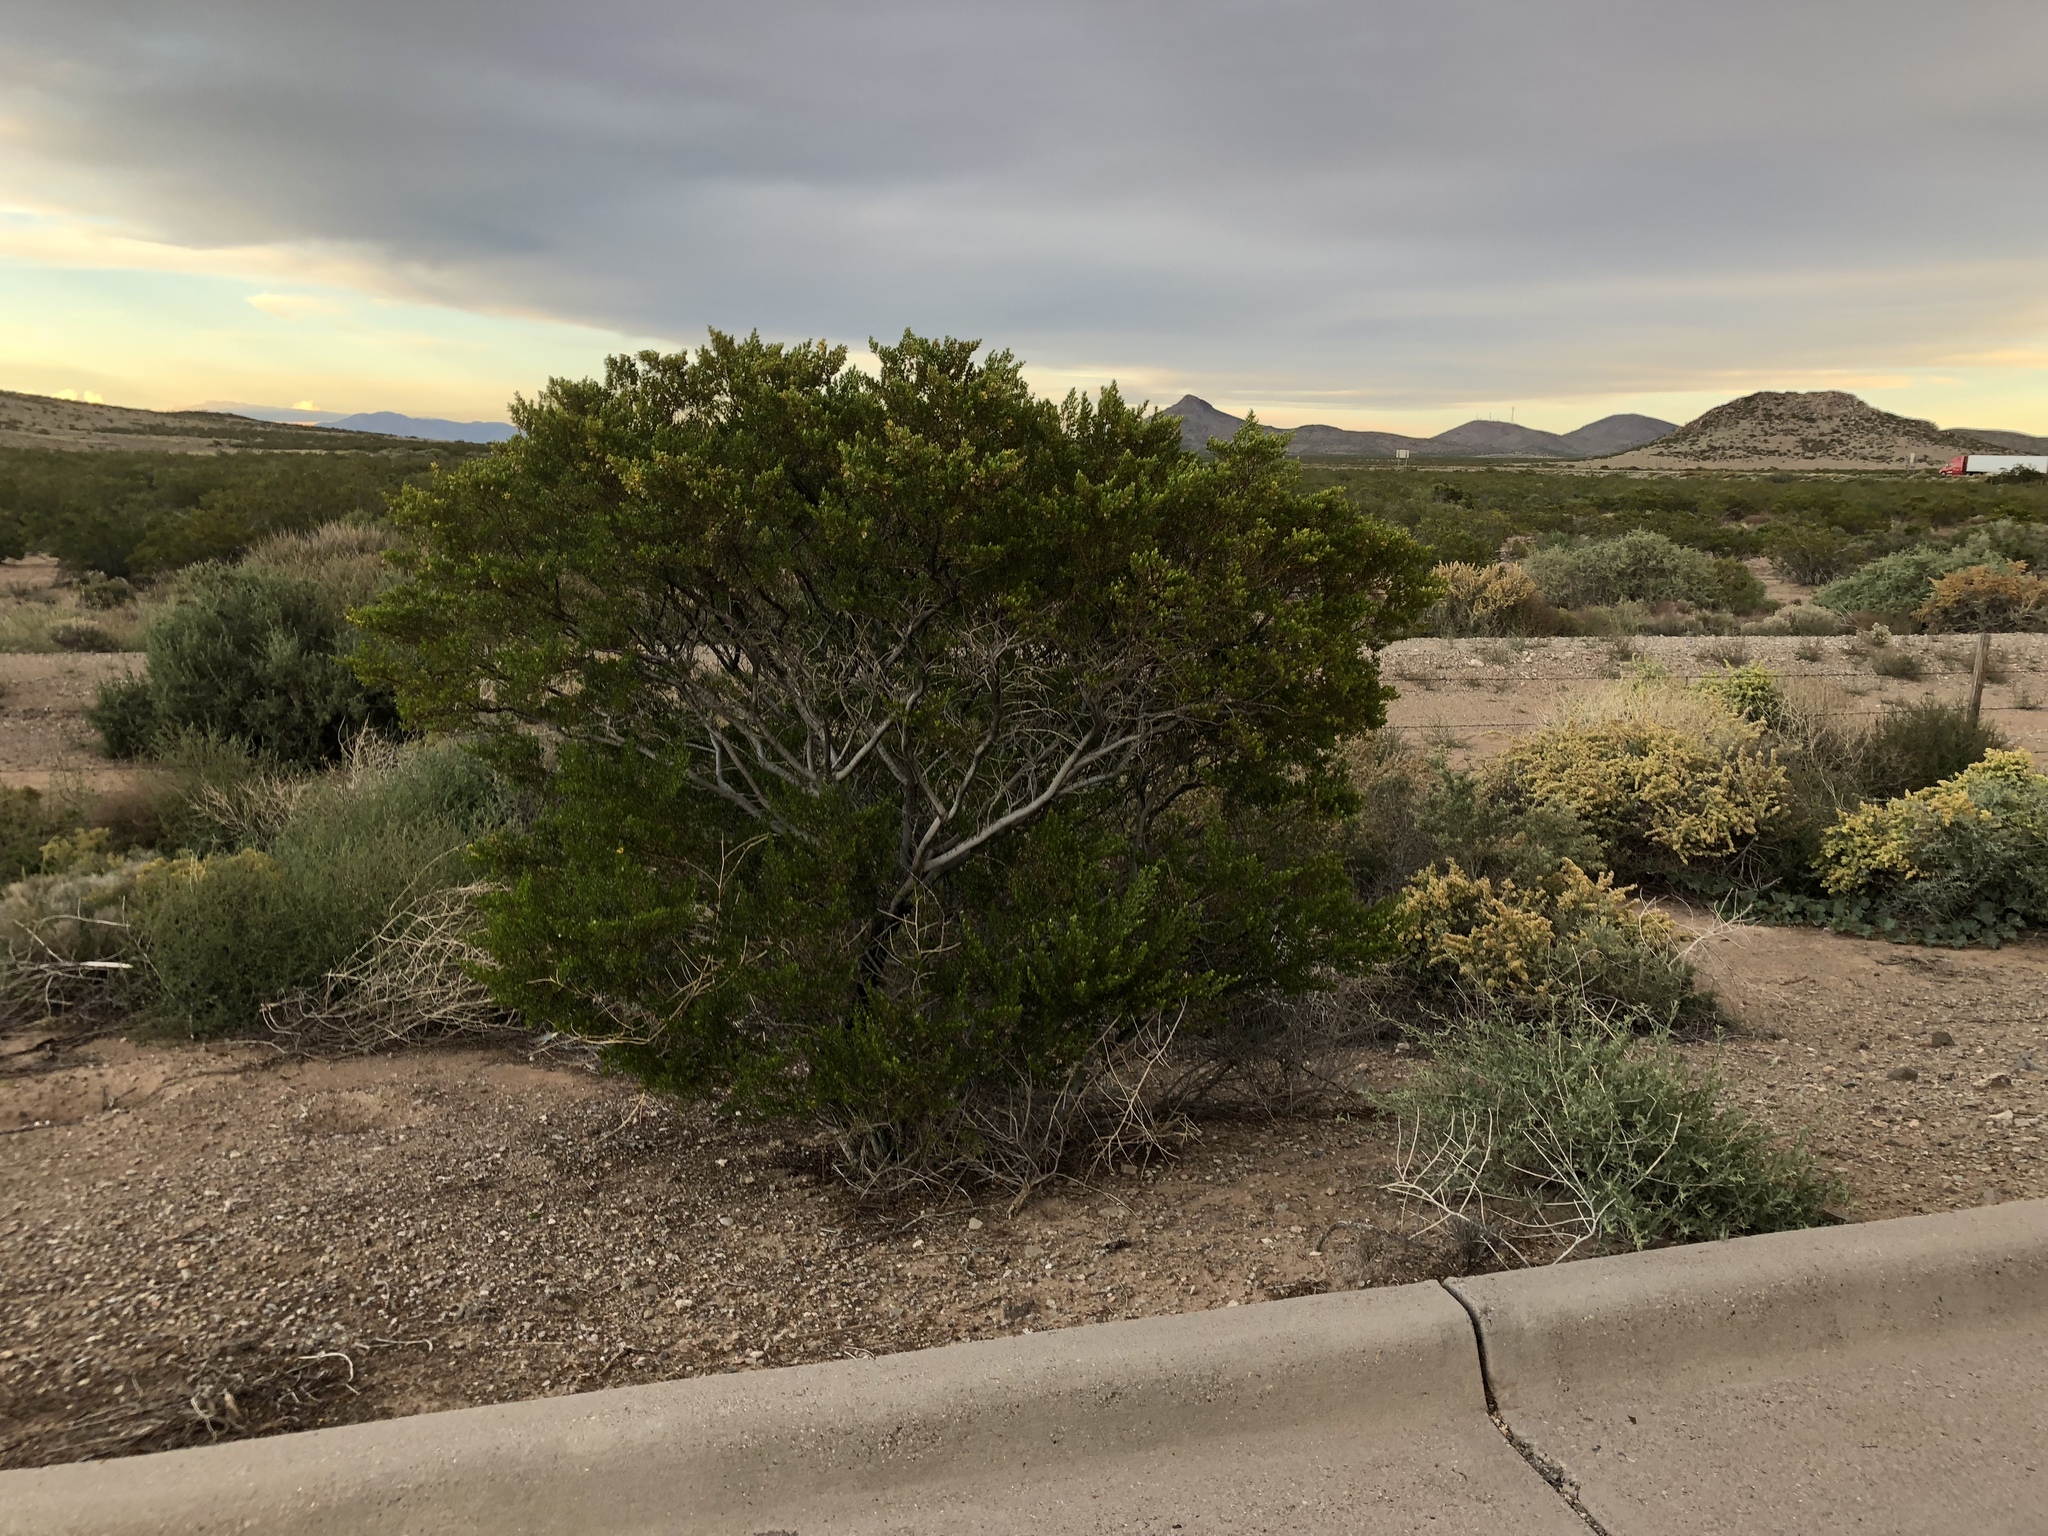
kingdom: Plantae
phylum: Tracheophyta
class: Magnoliopsida
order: Zygophyllales
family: Zygophyllaceae
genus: Larrea
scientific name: Larrea tridentata
